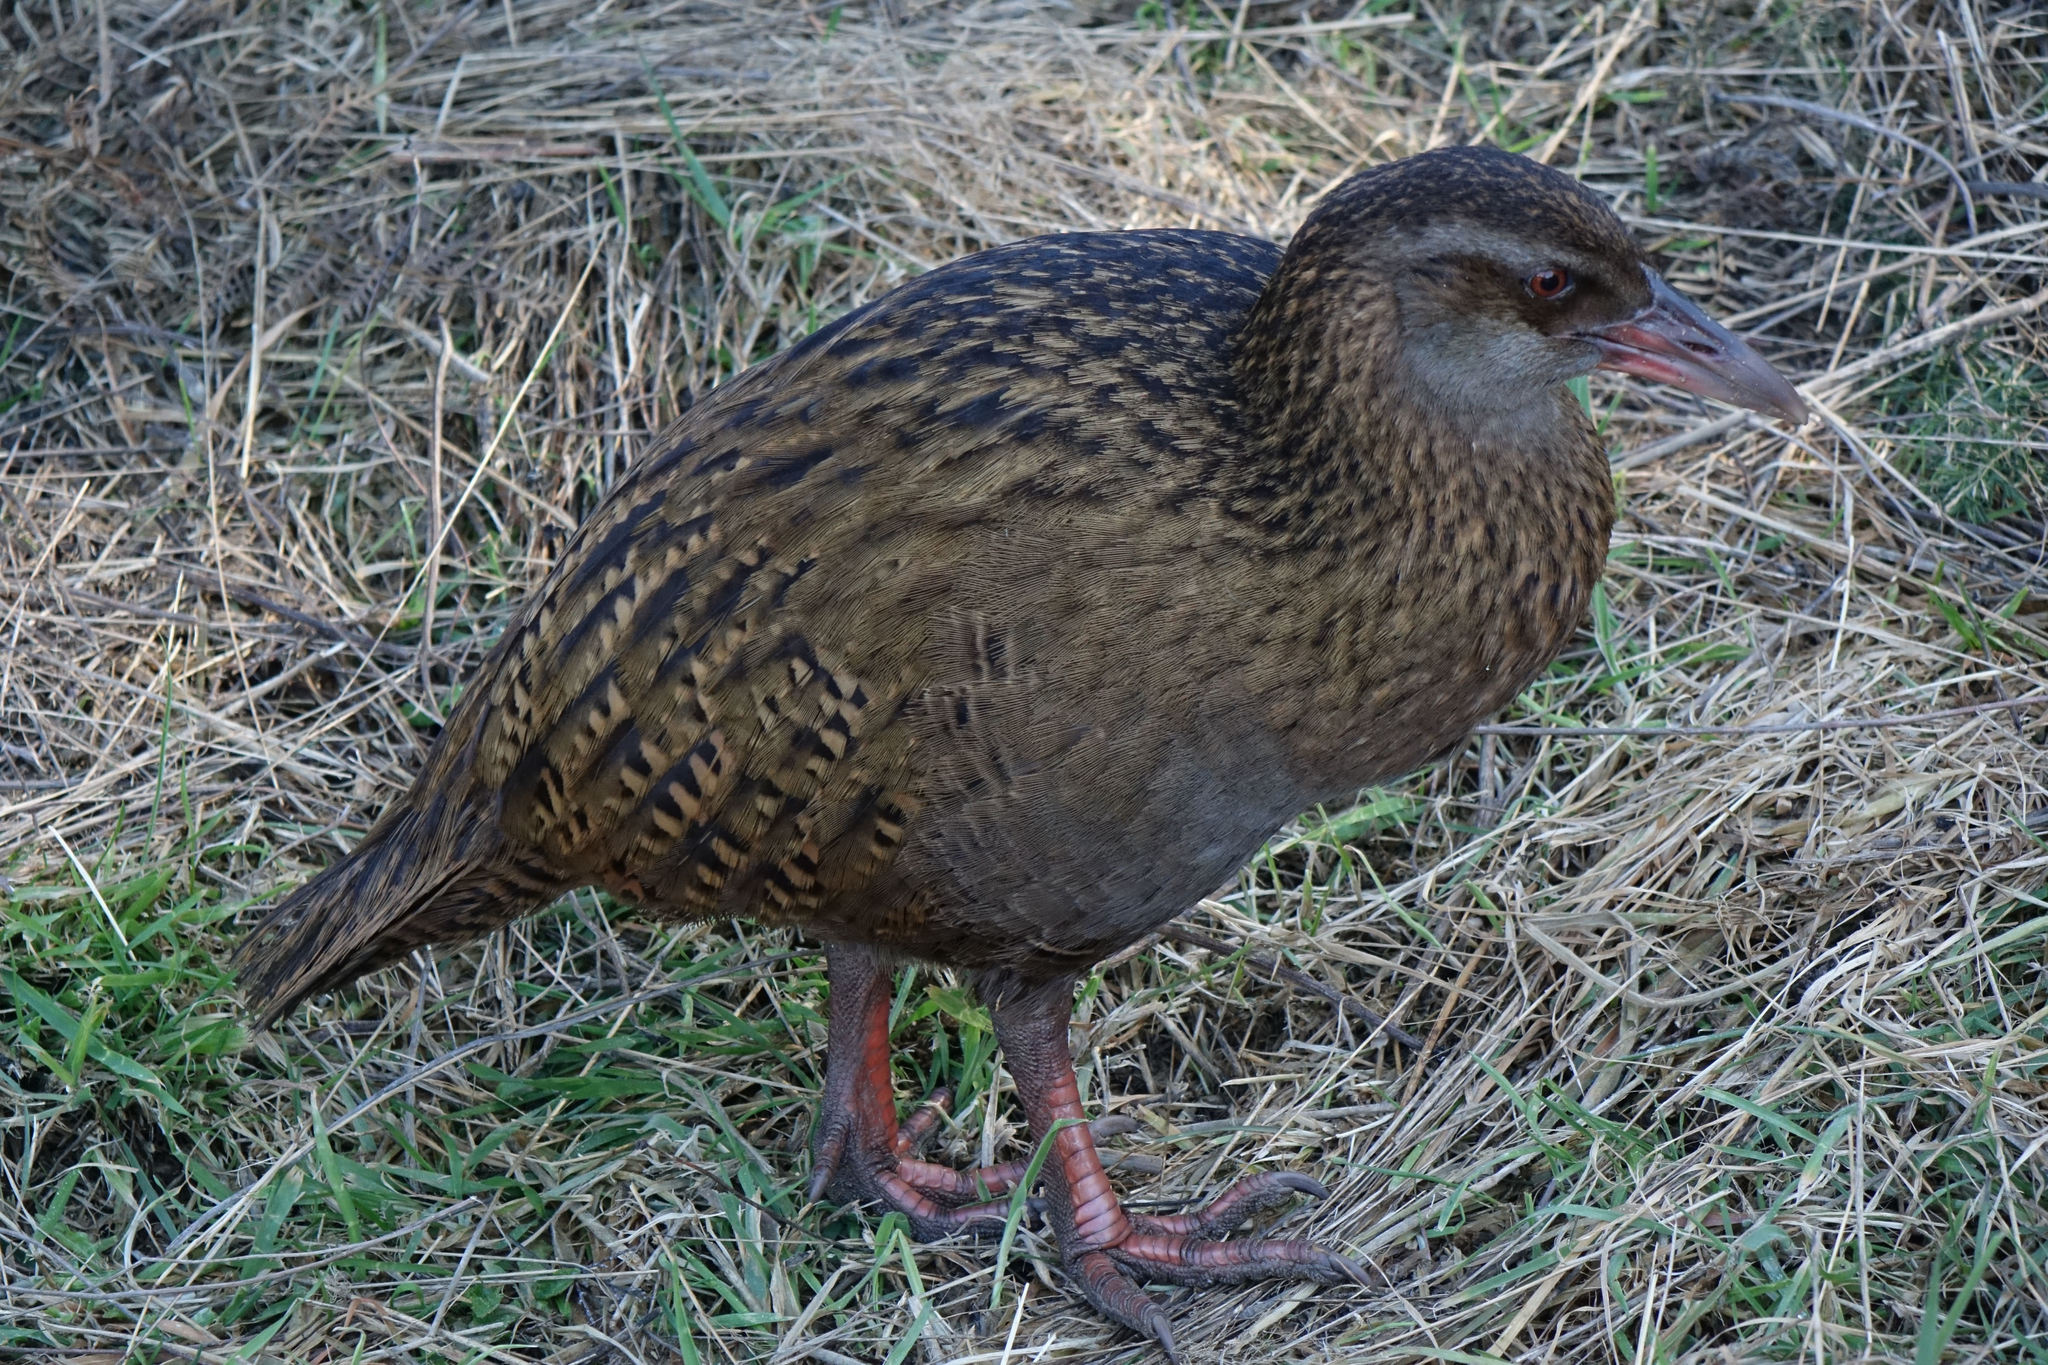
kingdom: Animalia
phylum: Chordata
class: Aves
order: Gruiformes
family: Rallidae
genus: Gallirallus
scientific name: Gallirallus australis
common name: Weka
